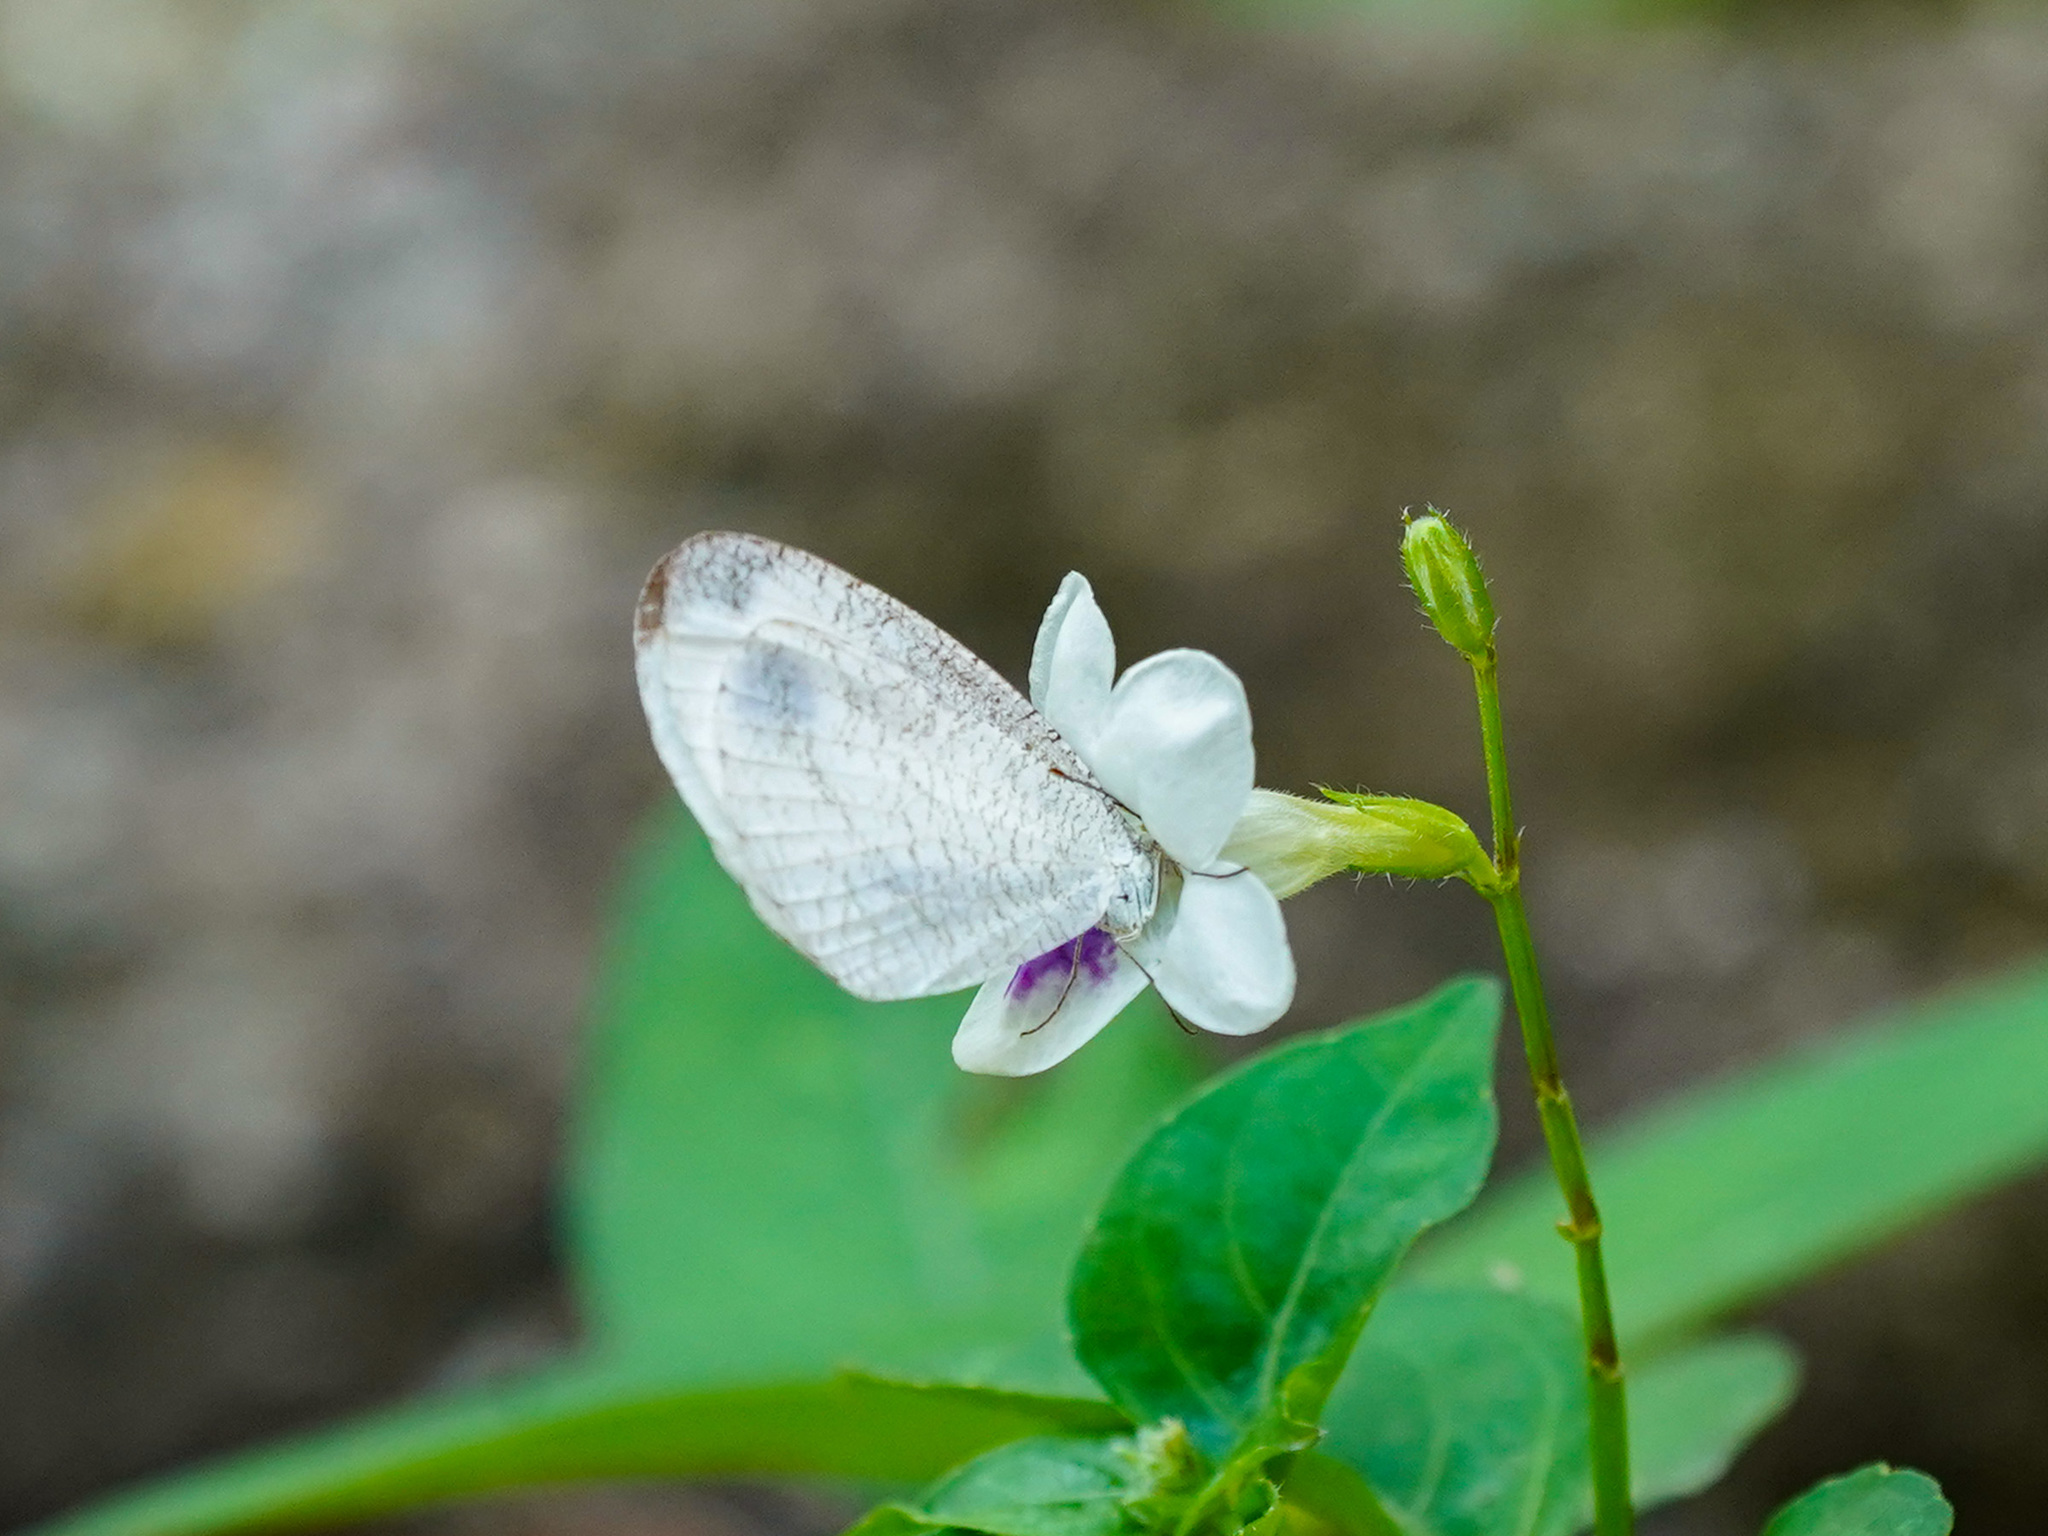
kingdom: Animalia
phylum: Arthropoda
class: Insecta
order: Lepidoptera
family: Pieridae
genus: Leptosia
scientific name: Leptosia nina
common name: Psyche
